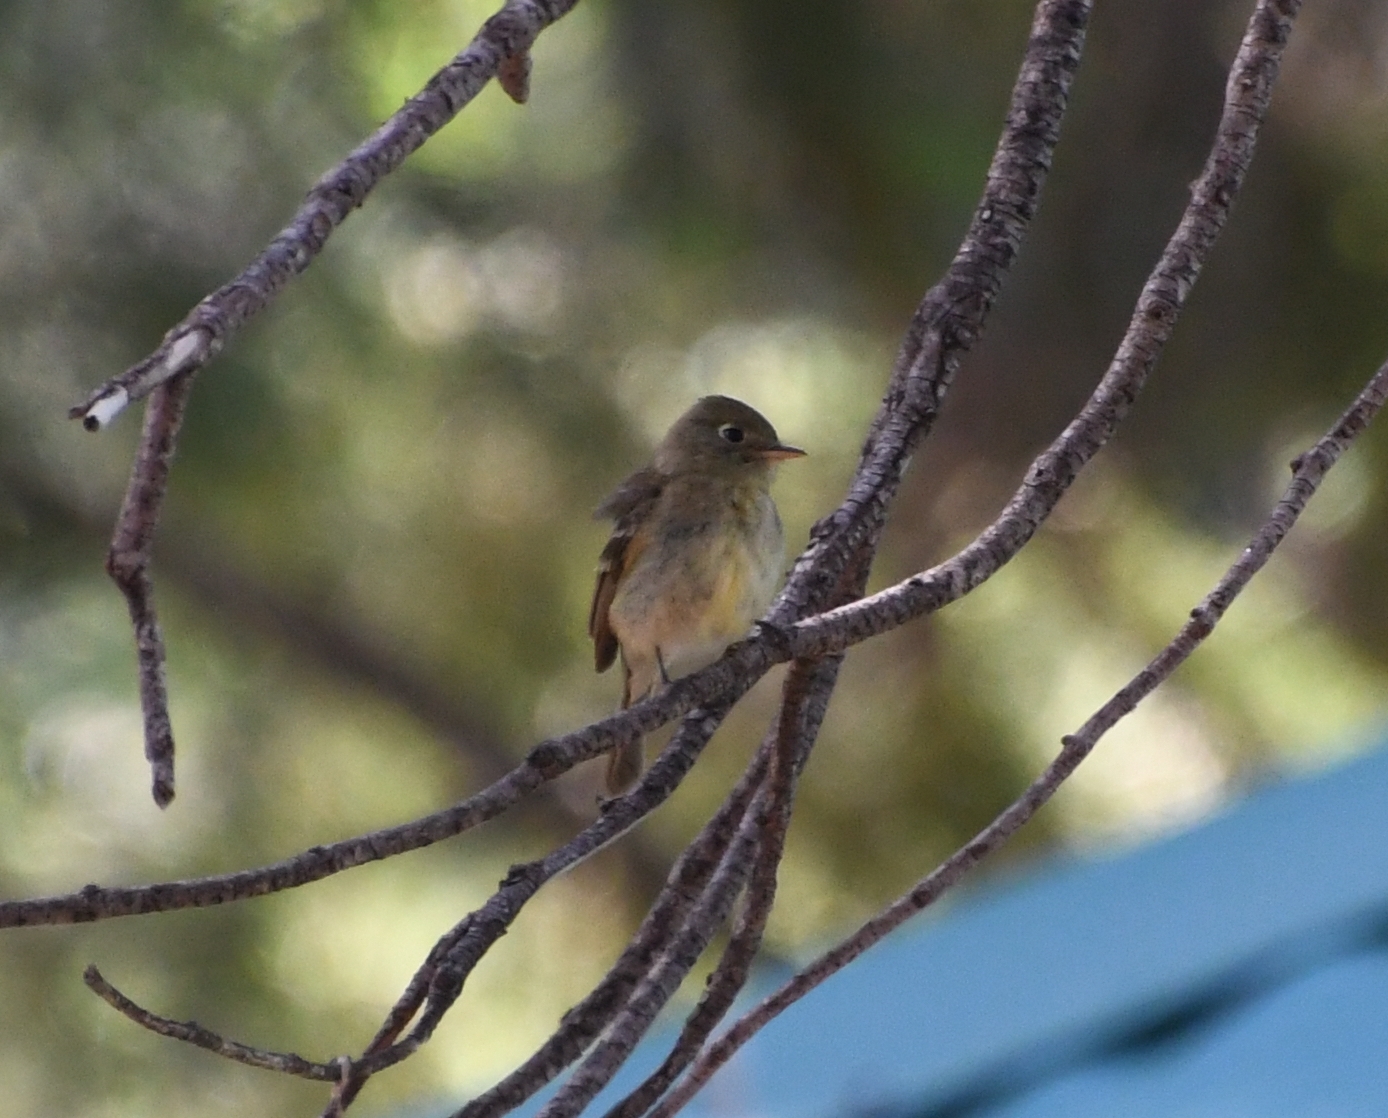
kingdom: Animalia
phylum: Chordata
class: Aves
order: Passeriformes
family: Tyrannidae
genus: Empidonax
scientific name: Empidonax difficilis
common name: Pacific-slope flycatcher
